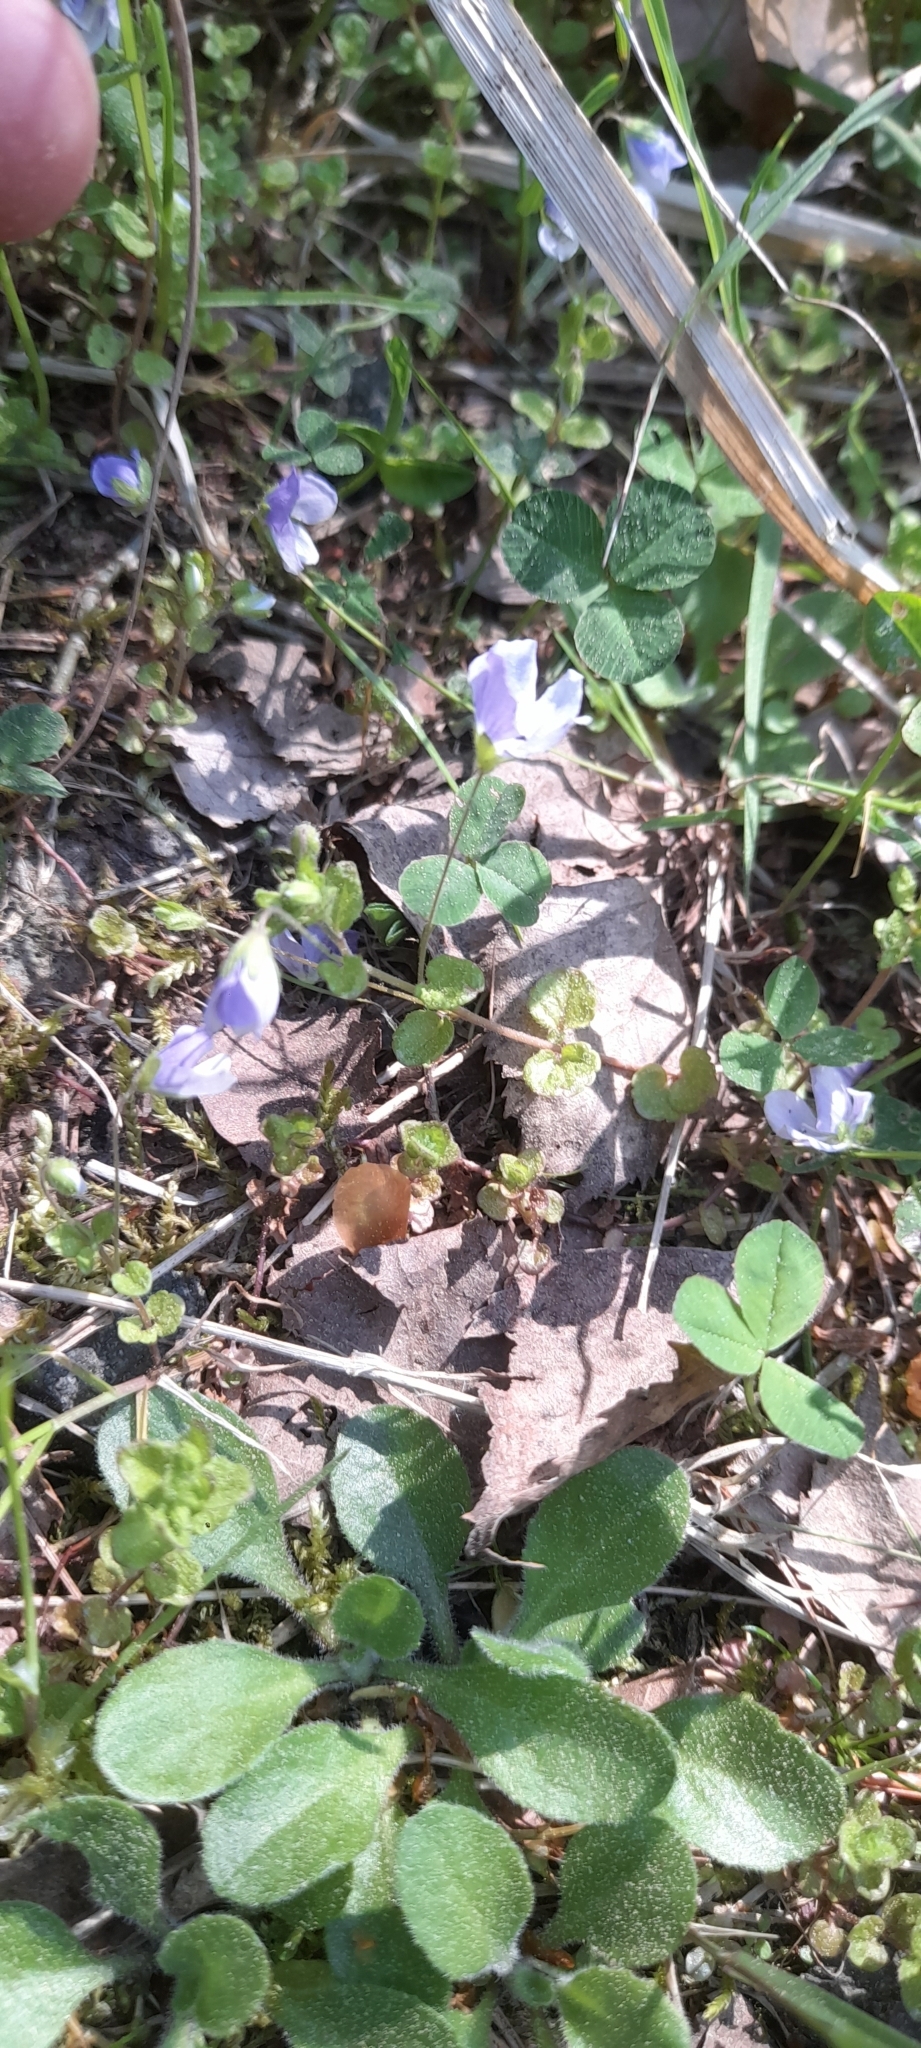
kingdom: Plantae
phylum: Tracheophyta
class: Magnoliopsida
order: Lamiales
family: Plantaginaceae
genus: Veronica
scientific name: Veronica filiformis
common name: Slender speedwell
